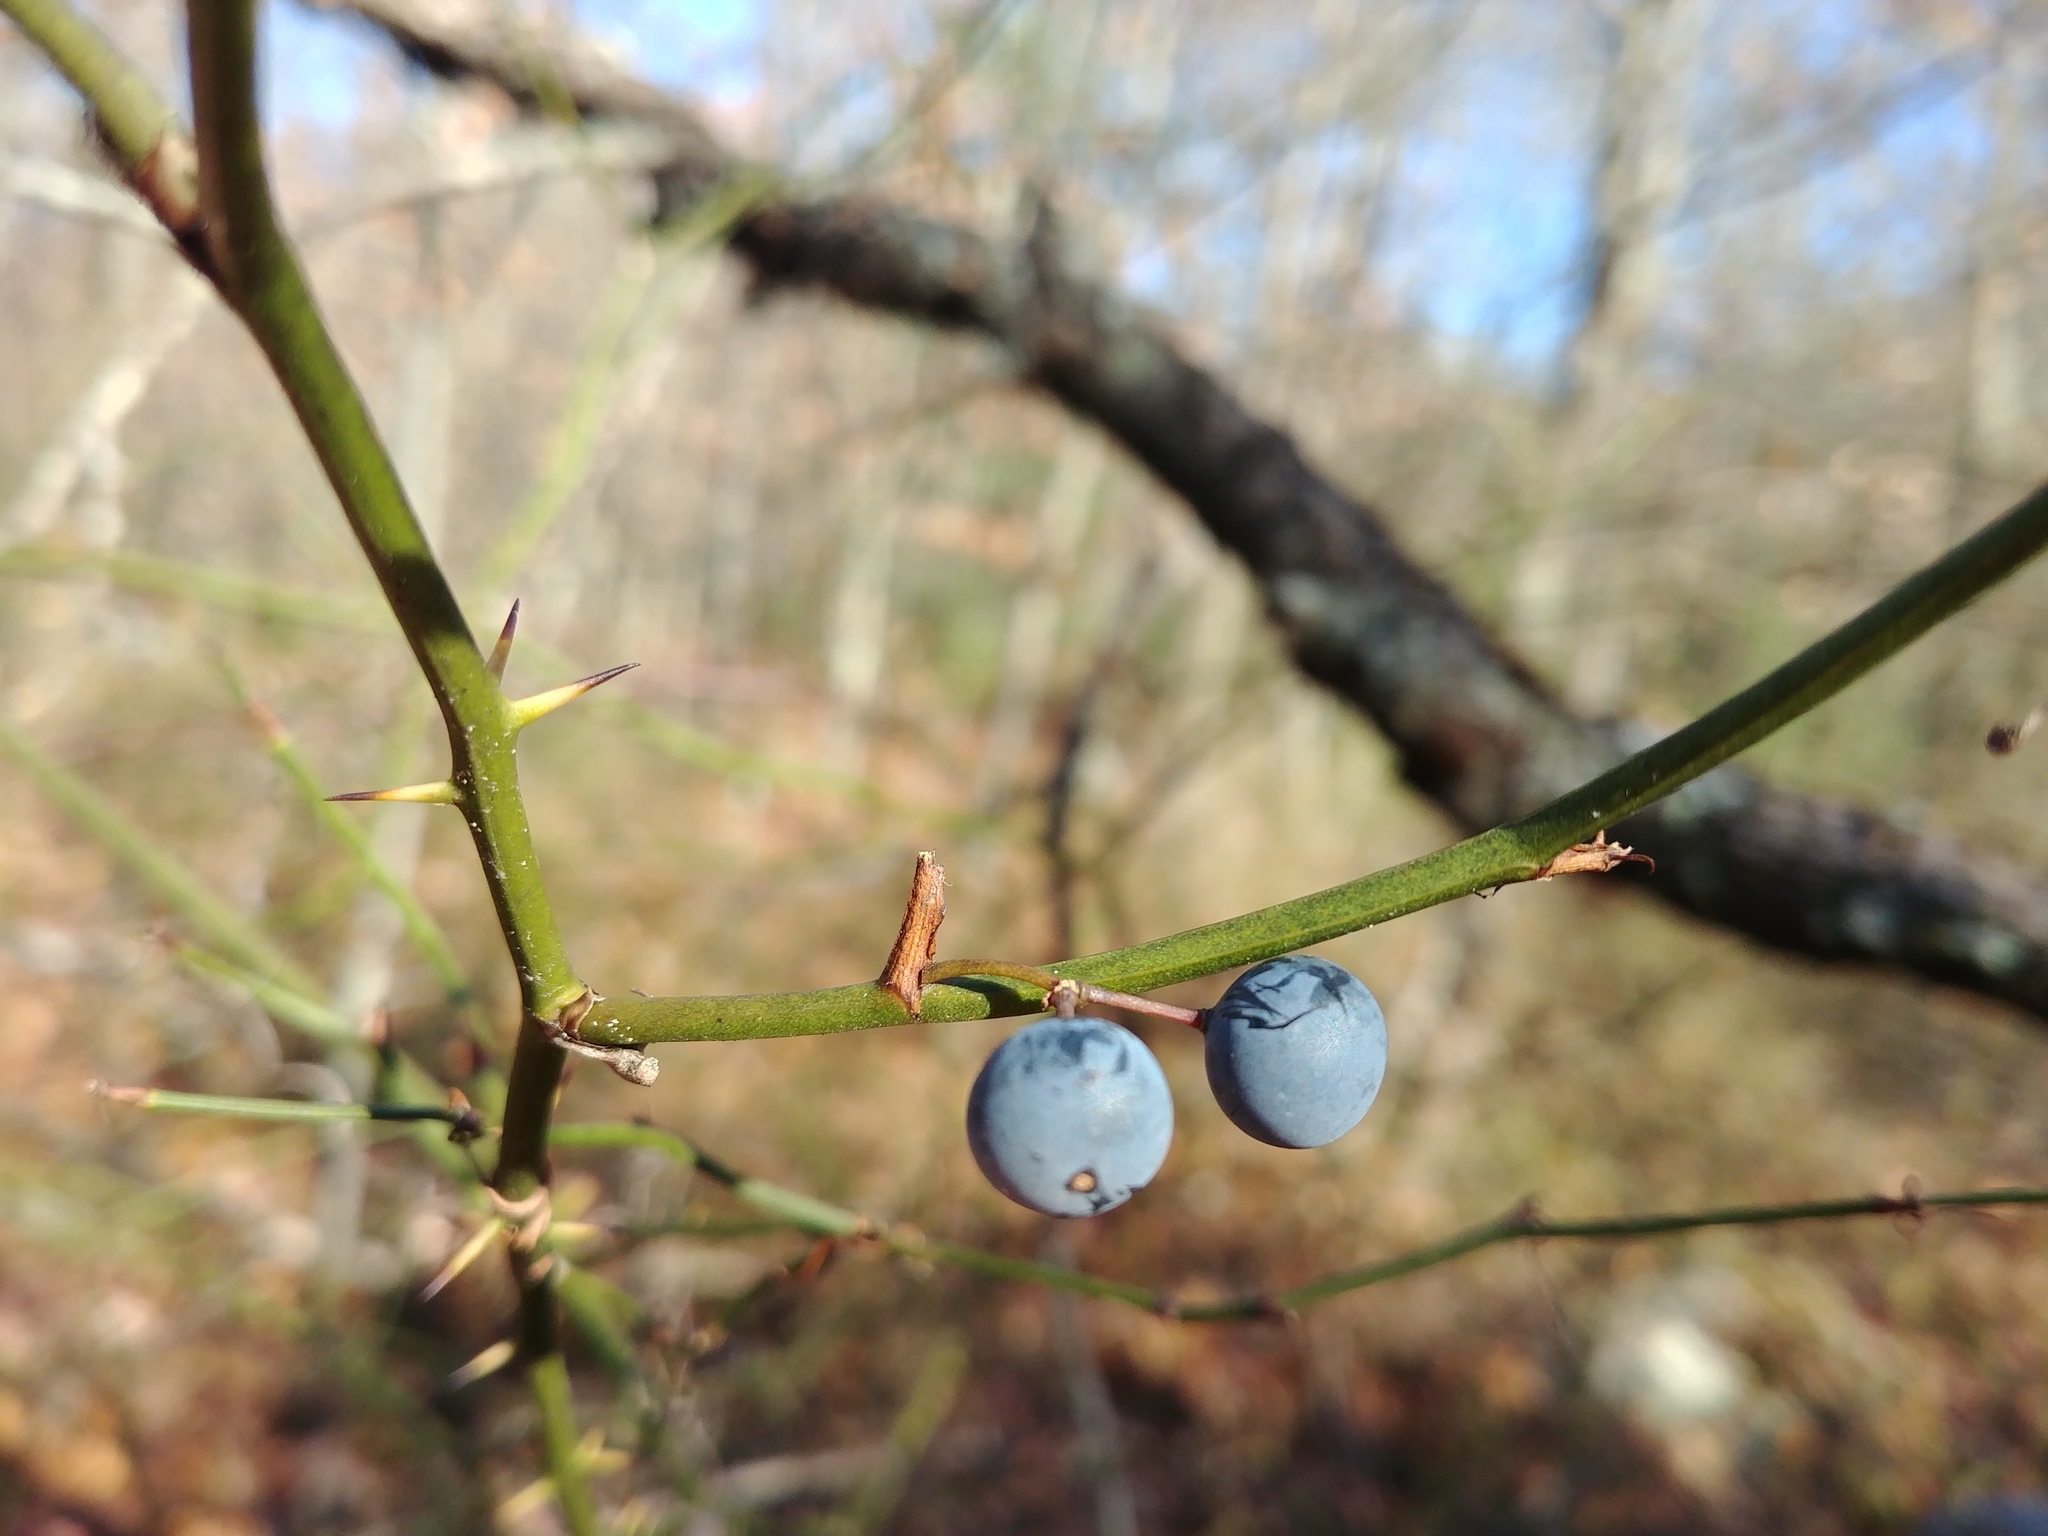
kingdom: Plantae
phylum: Tracheophyta
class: Liliopsida
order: Liliales
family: Smilacaceae
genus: Smilax
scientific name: Smilax rotundifolia
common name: Bullbriar
